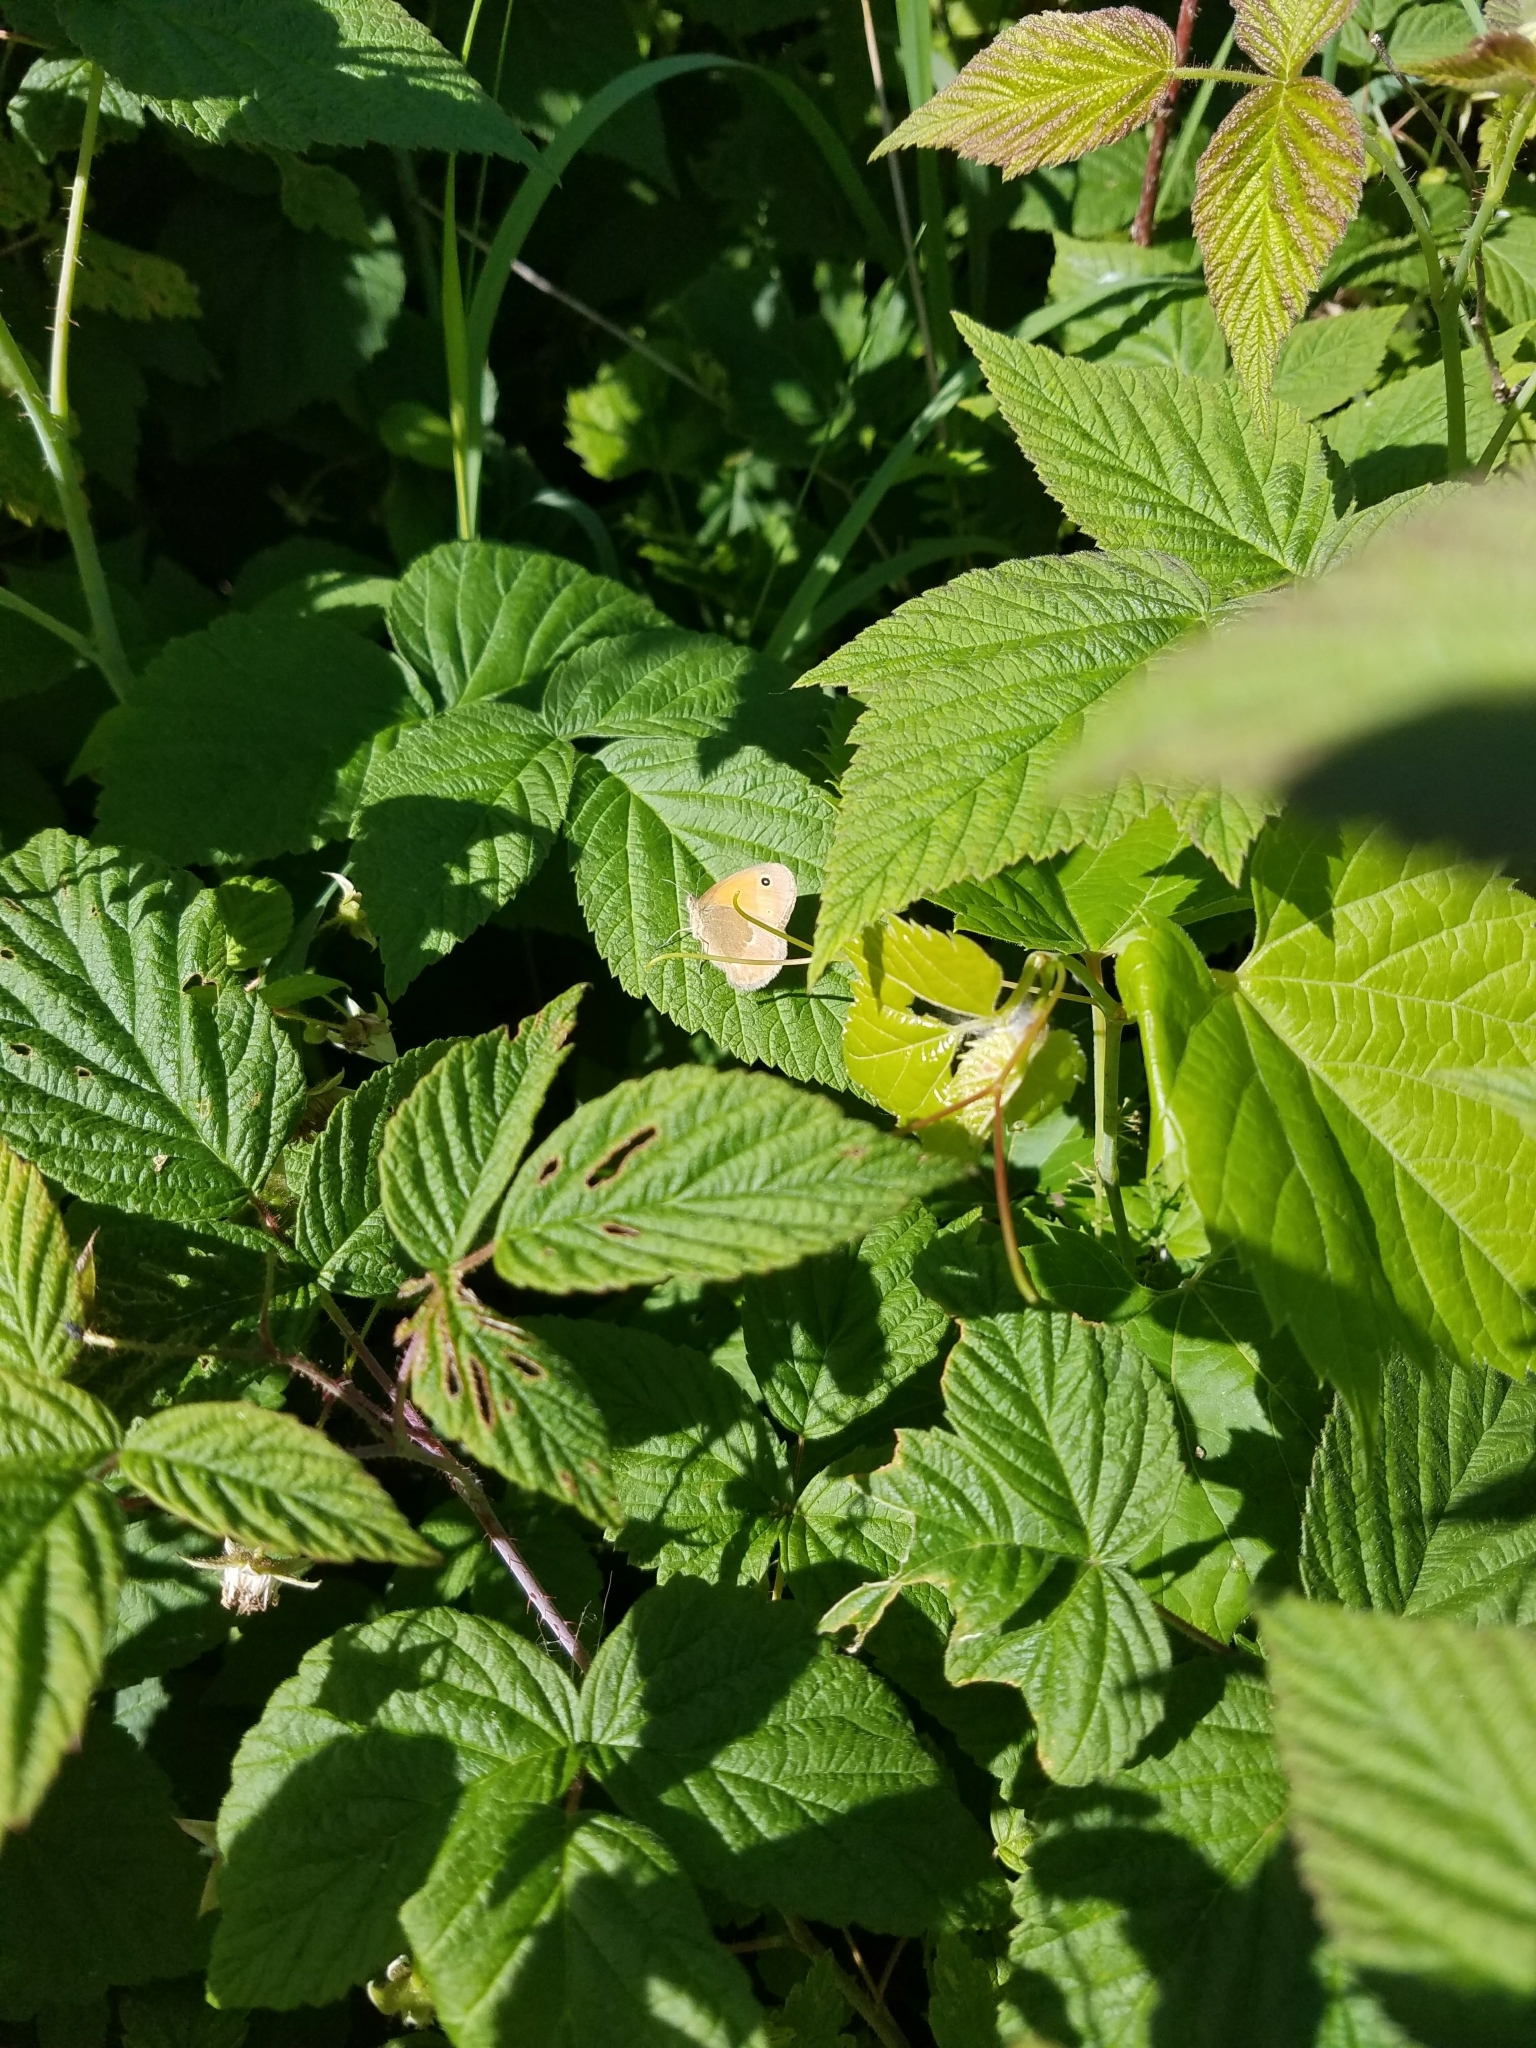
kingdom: Animalia
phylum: Arthropoda
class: Insecta
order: Lepidoptera
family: Nymphalidae
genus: Coenonympha
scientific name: Coenonympha california
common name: Common ringlet
